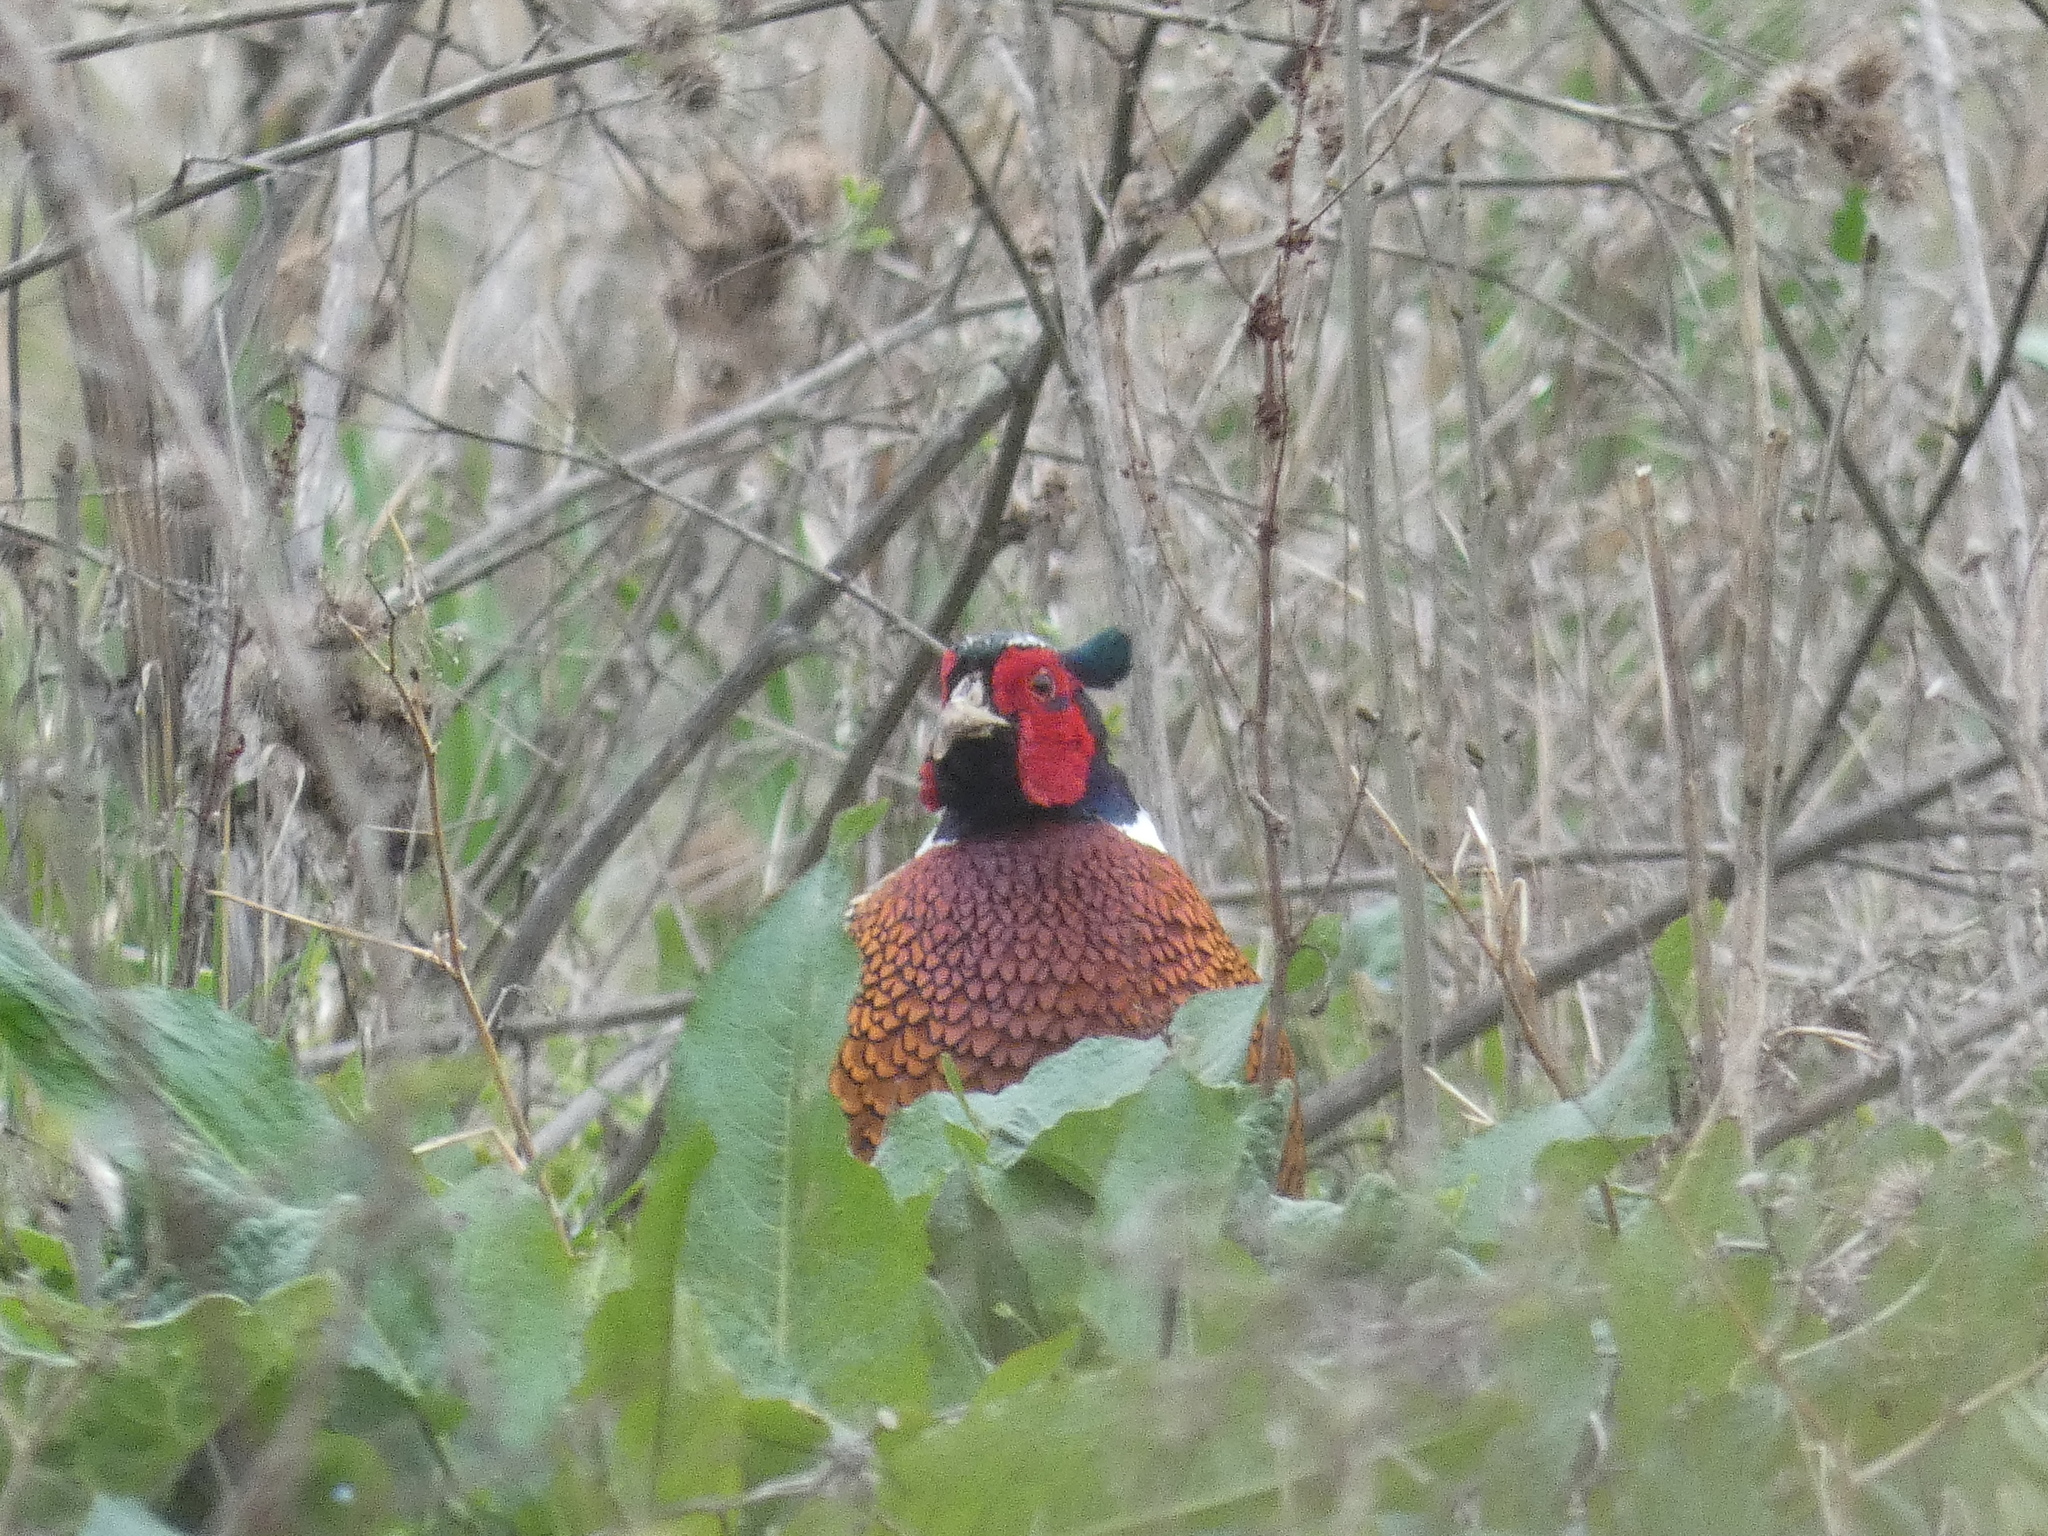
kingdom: Animalia
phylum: Chordata
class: Aves
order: Galliformes
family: Phasianidae
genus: Phasianus
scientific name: Phasianus colchicus
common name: Common pheasant
